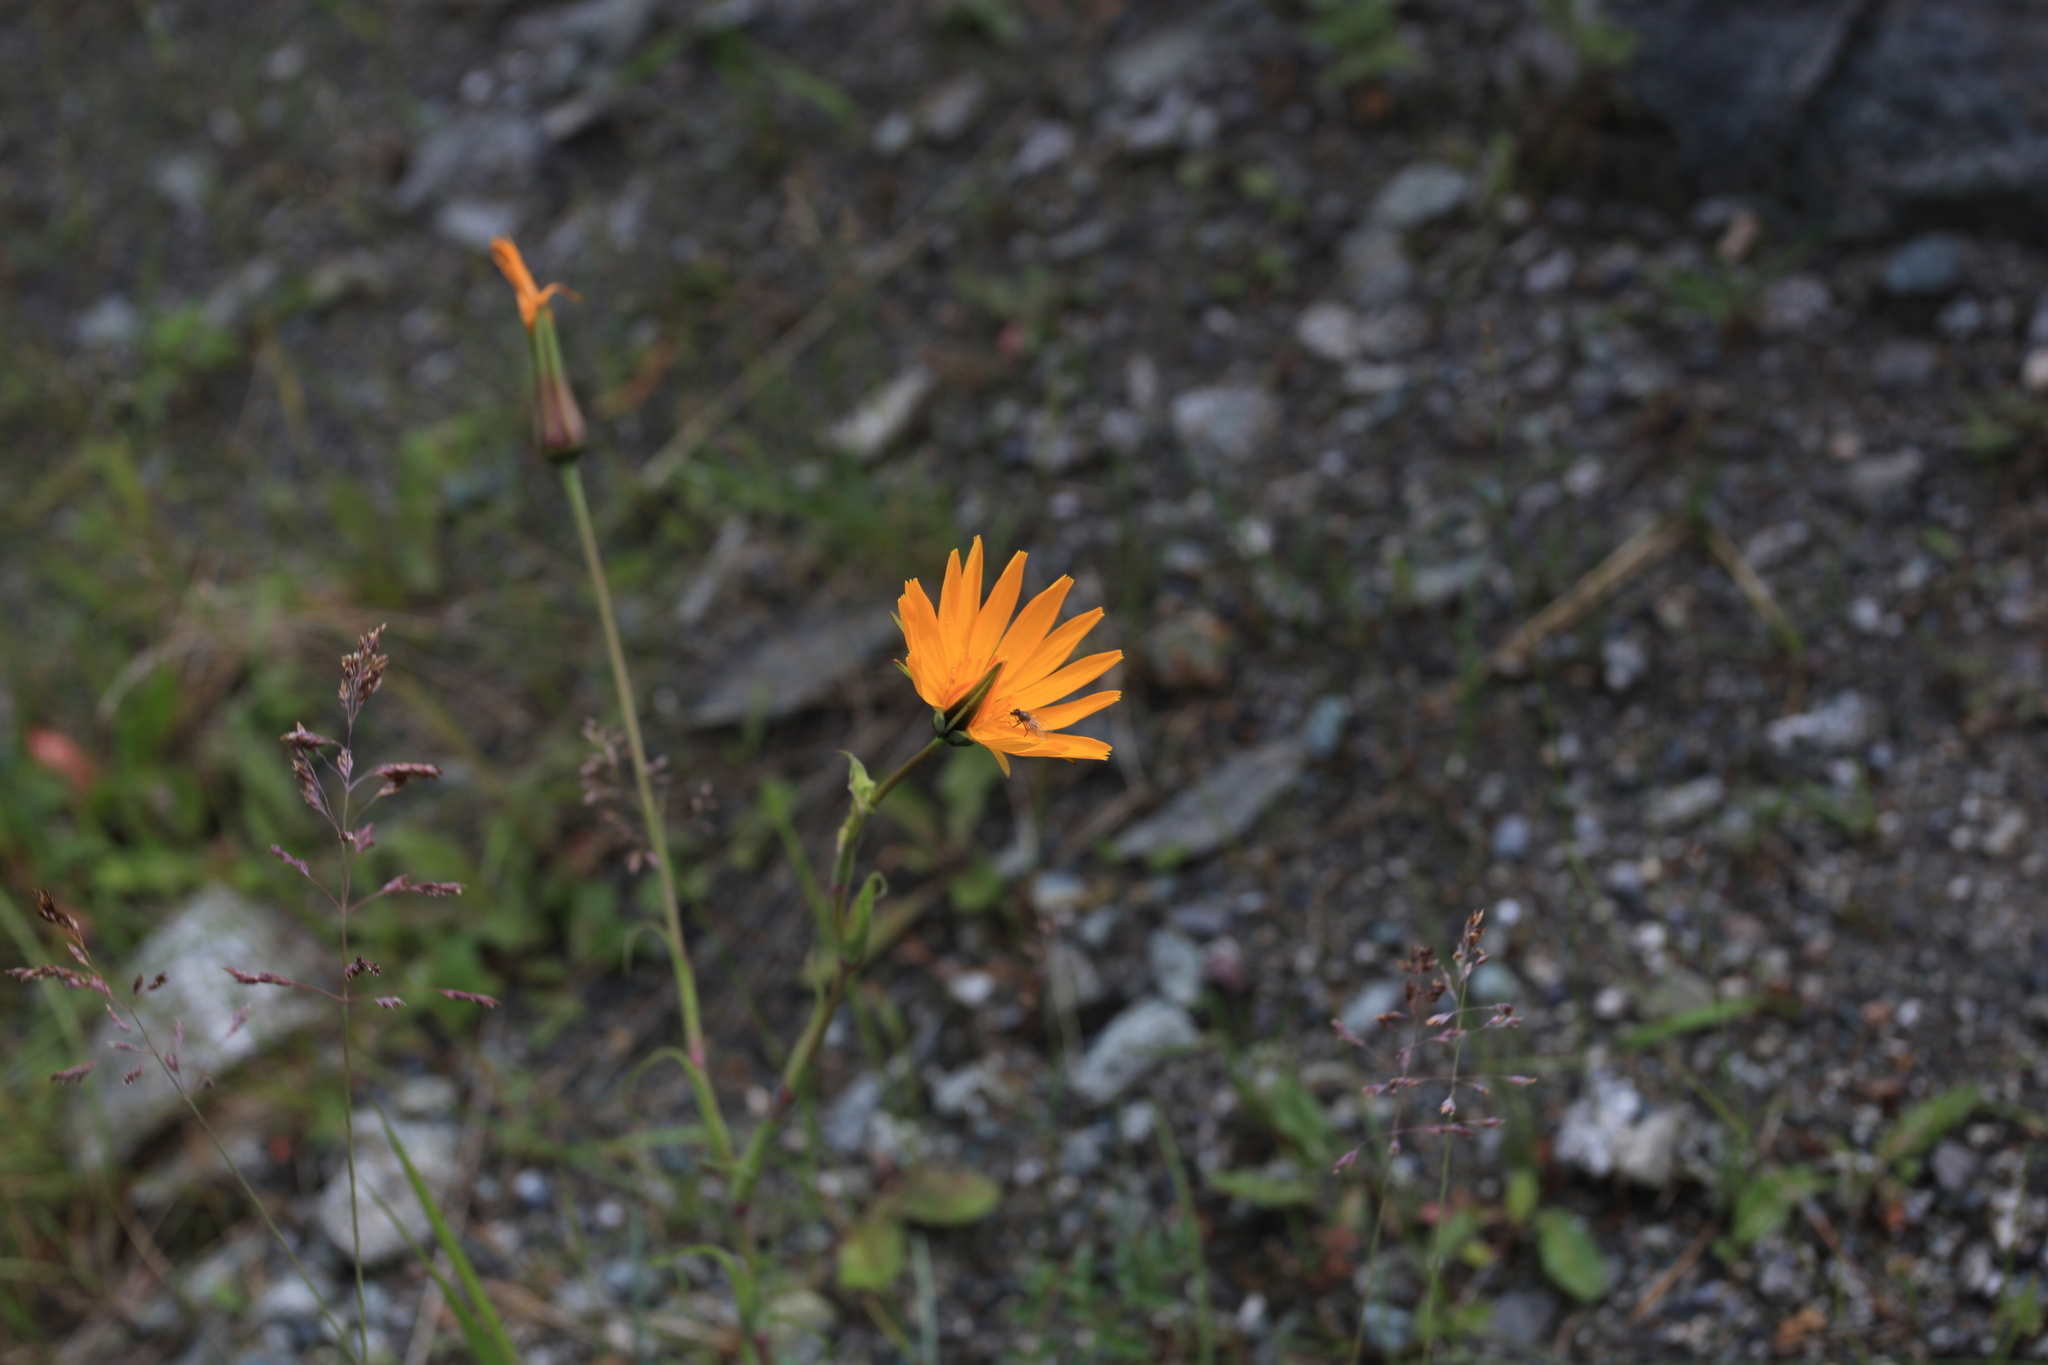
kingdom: Plantae
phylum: Tracheophyta
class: Magnoliopsida
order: Asterales
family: Asteraceae
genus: Tragopogon
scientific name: Tragopogon orientalis
